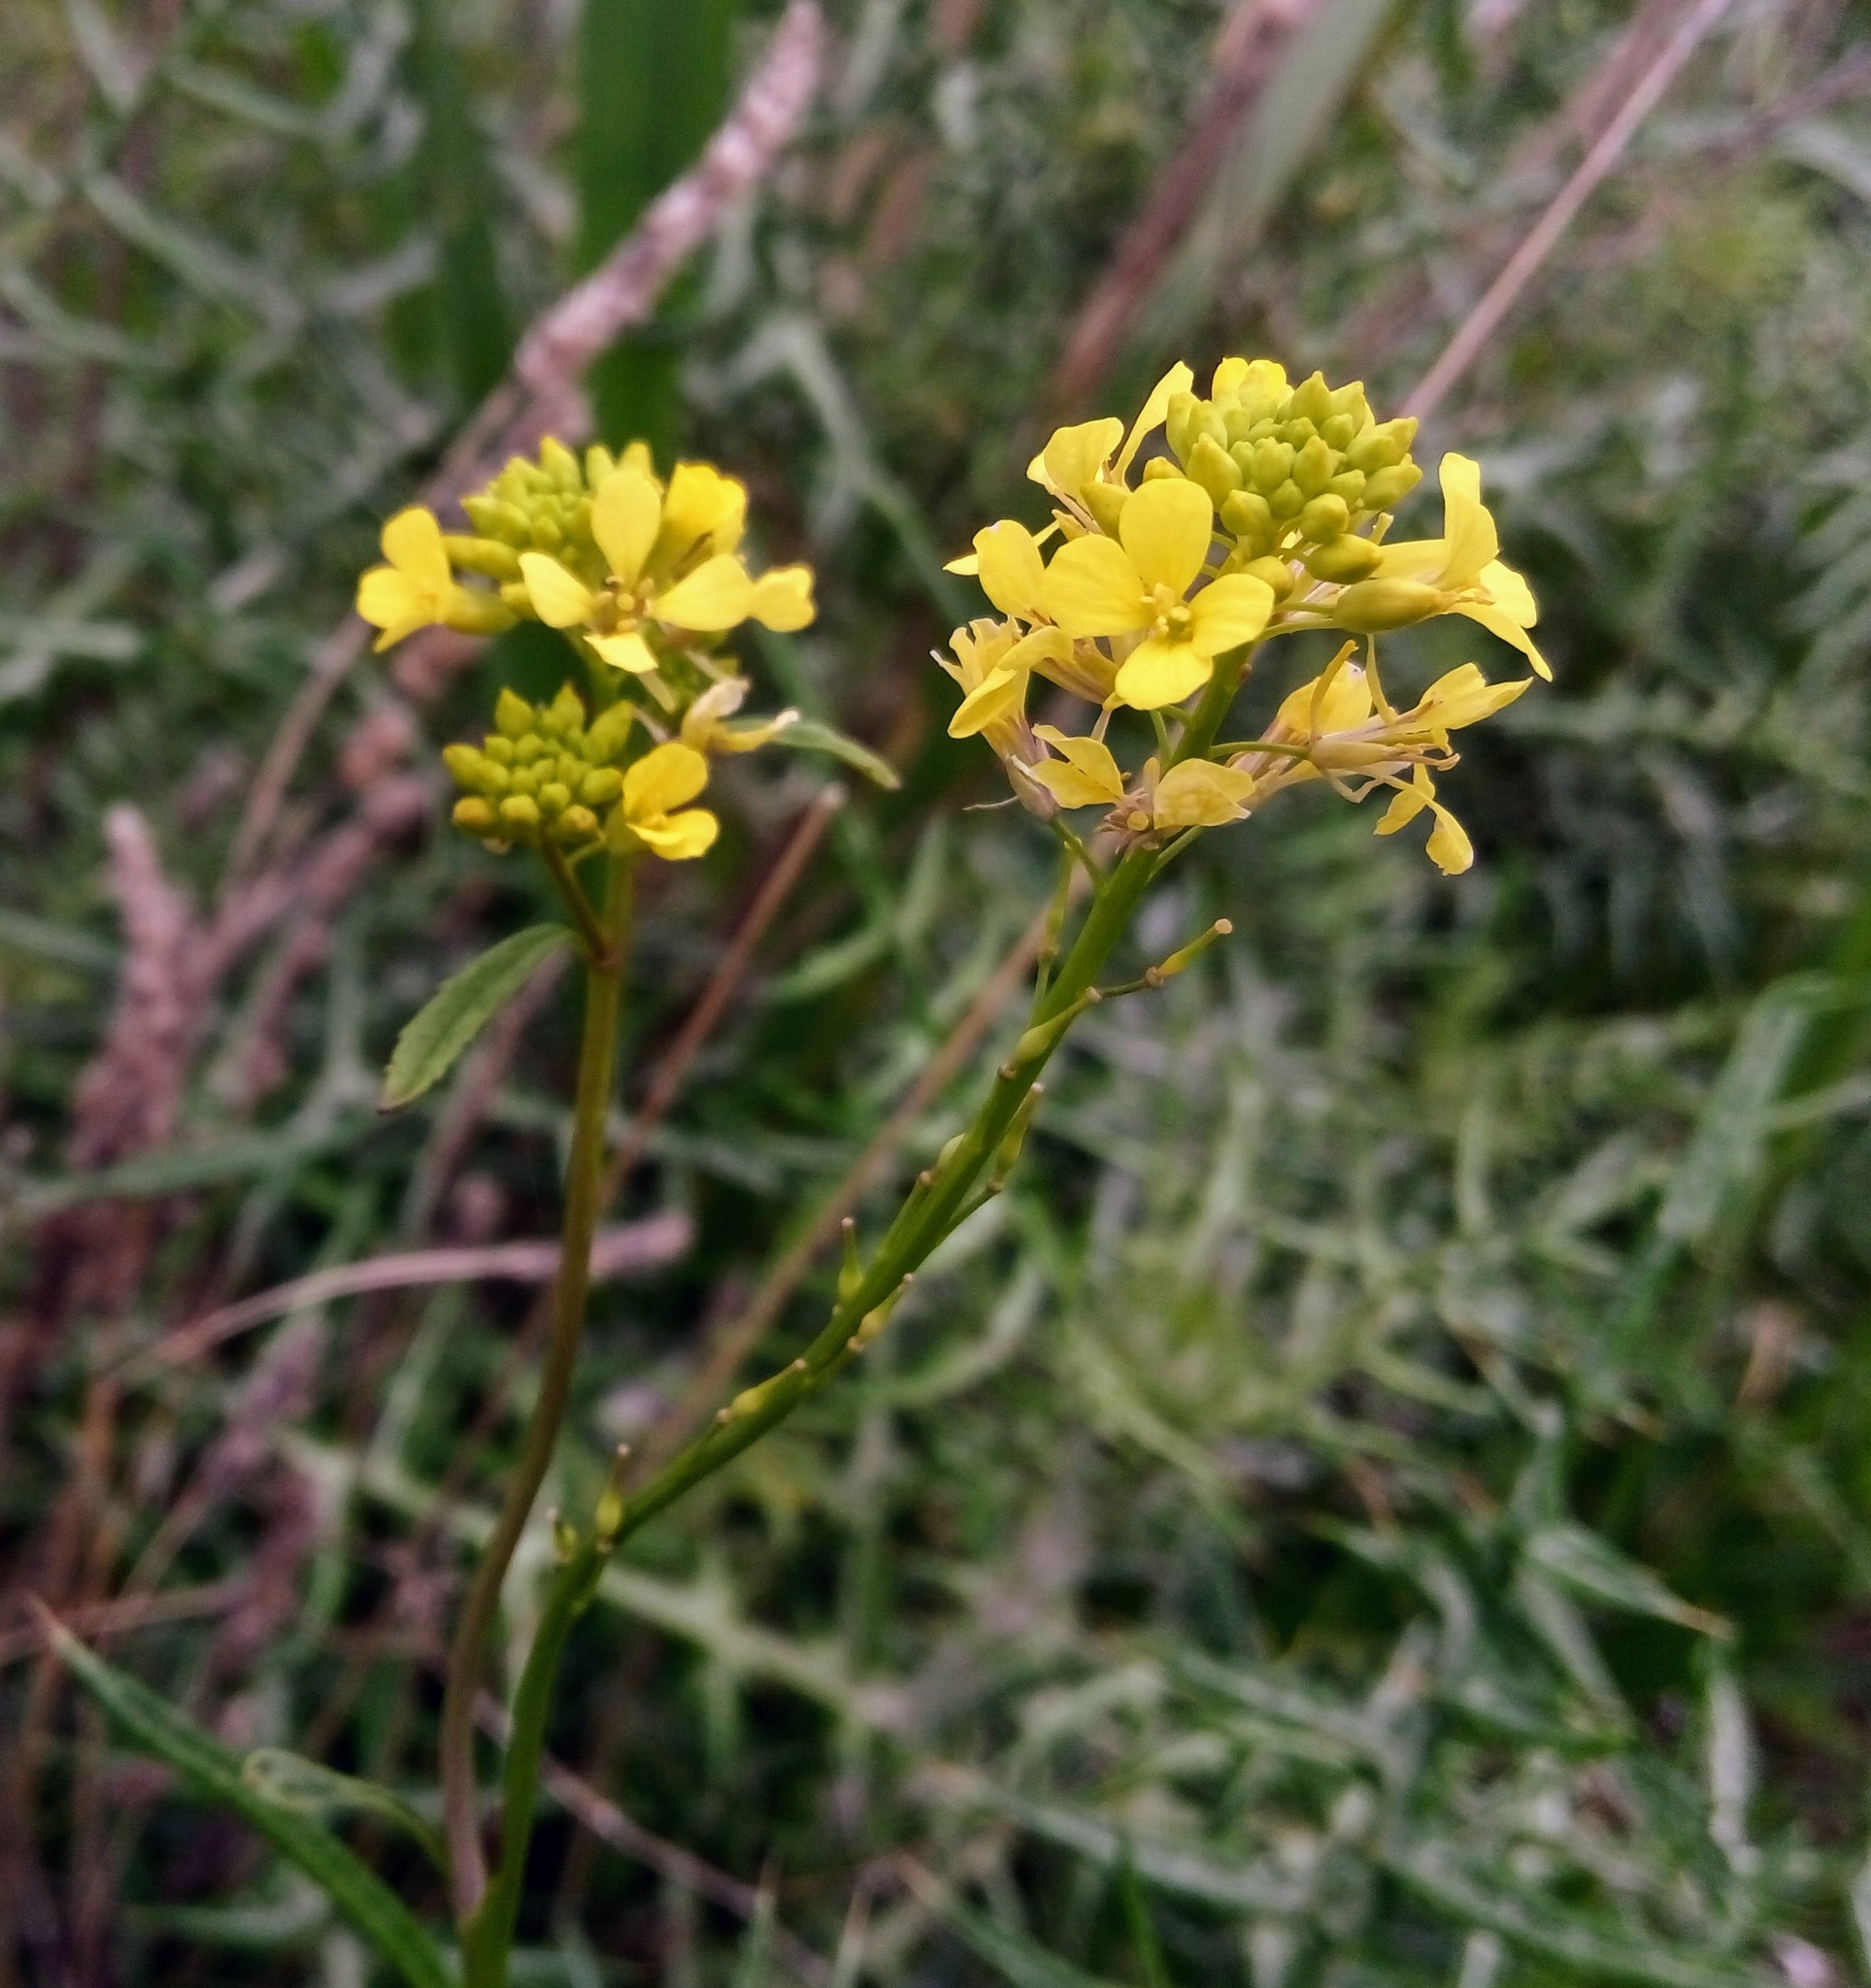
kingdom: Plantae
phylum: Tracheophyta
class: Magnoliopsida
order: Brassicales
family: Brassicaceae
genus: Rapistrum
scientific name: Rapistrum rugosum
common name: Annual bastardcabbage
